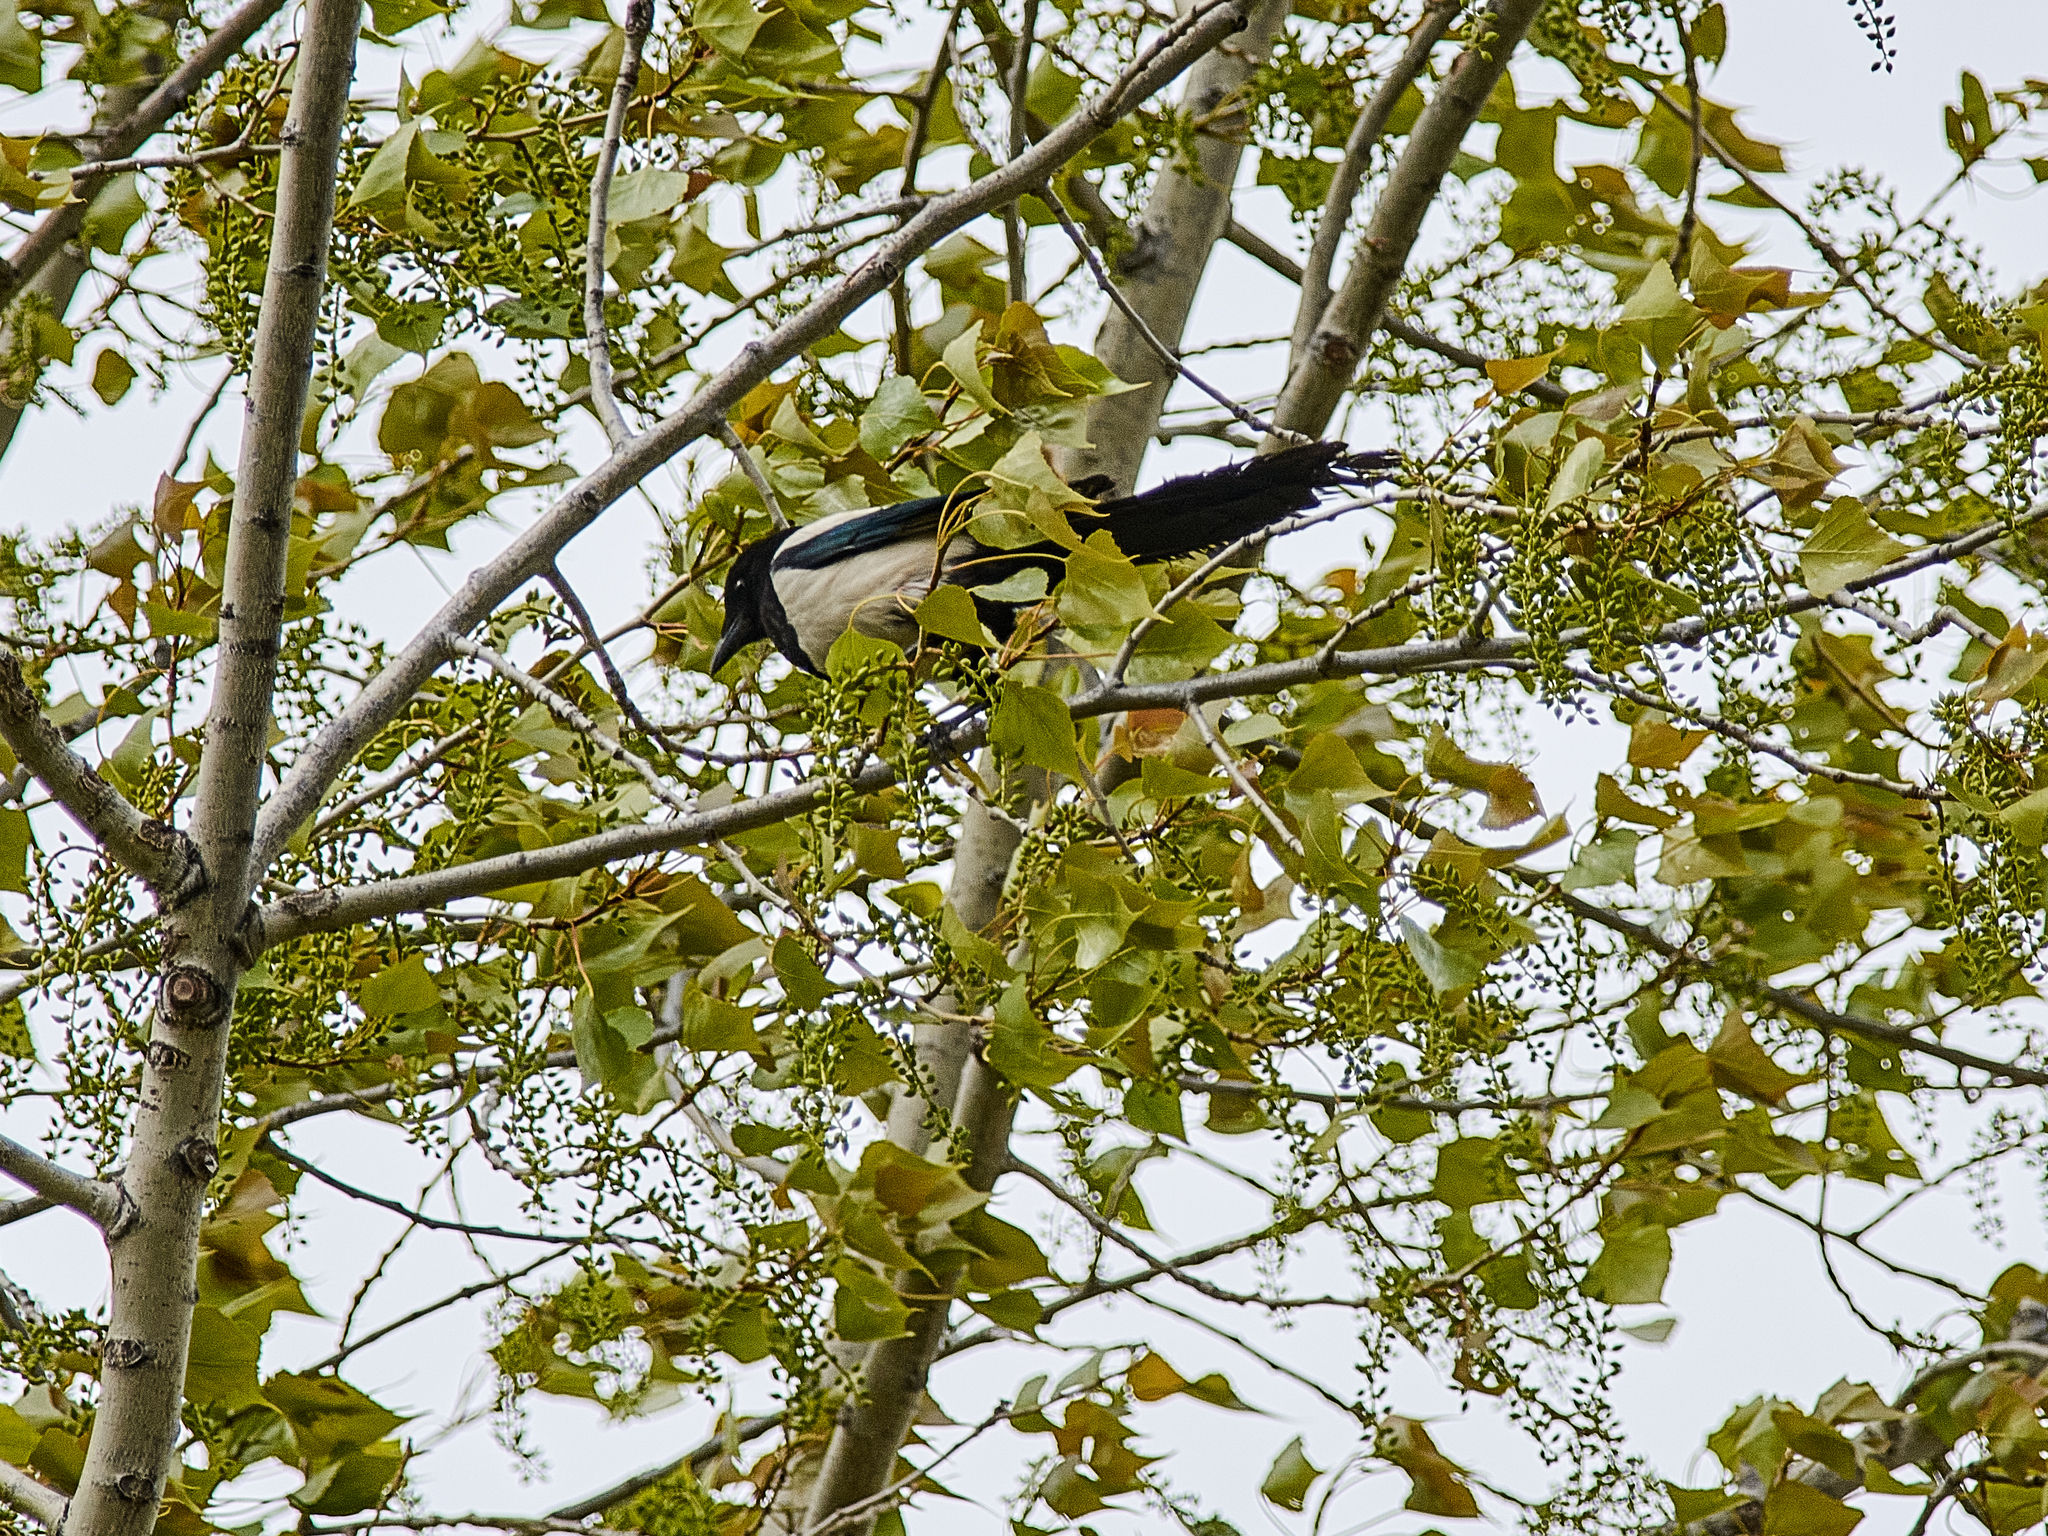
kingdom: Animalia
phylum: Chordata
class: Aves
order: Passeriformes
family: Corvidae
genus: Pica
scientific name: Pica pica
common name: Eurasian magpie
